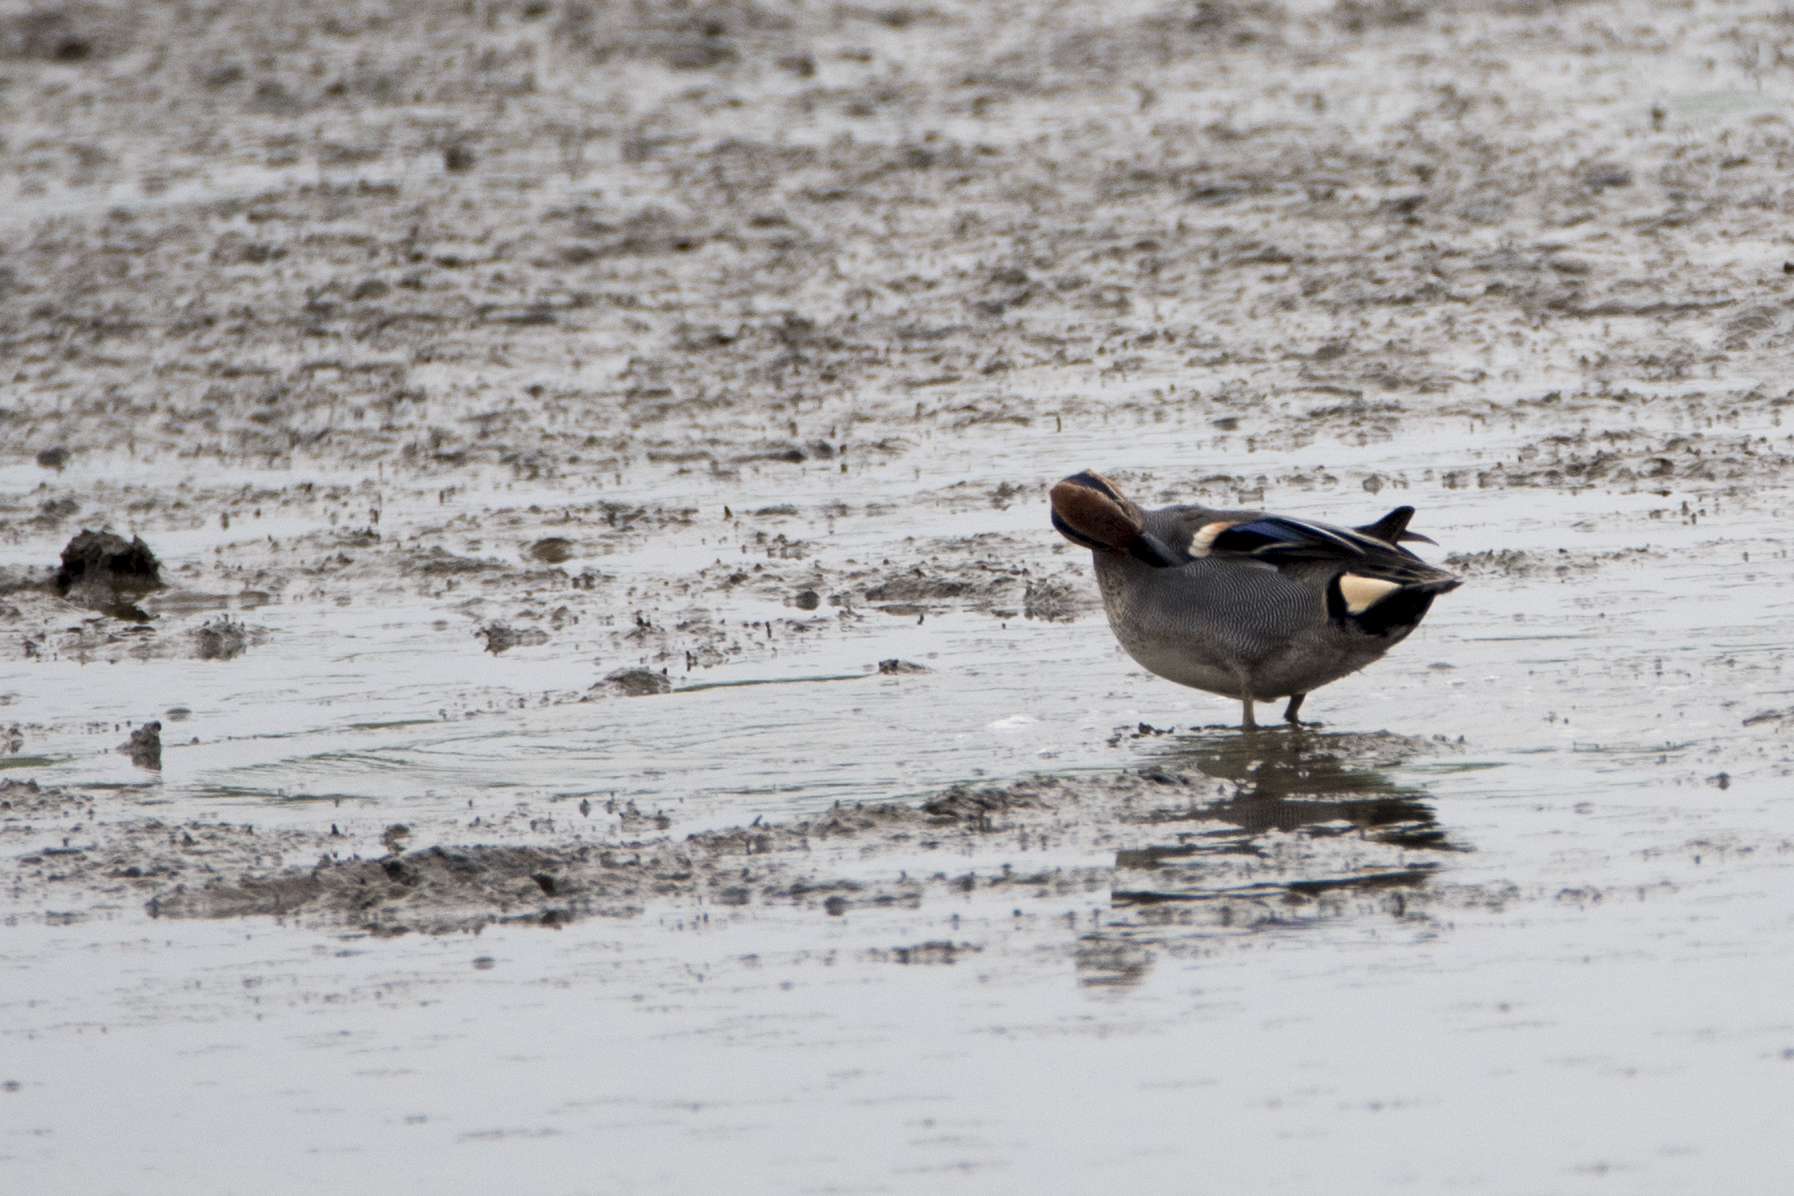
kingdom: Animalia
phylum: Chordata
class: Aves
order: Anseriformes
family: Anatidae
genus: Anas
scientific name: Anas crecca
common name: Eurasian teal
